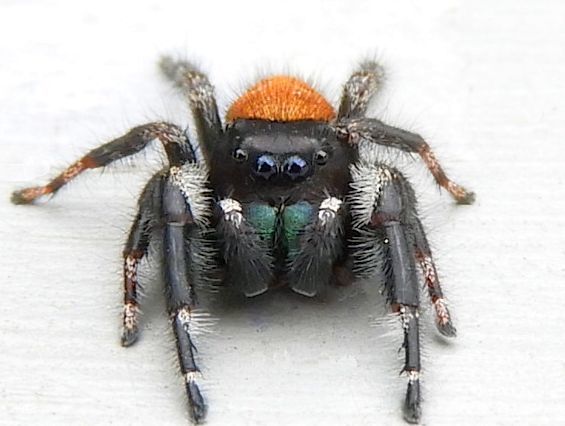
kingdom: Animalia
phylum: Arthropoda
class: Arachnida
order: Araneae
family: Salticidae
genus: Phidippus
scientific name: Phidippus princeps
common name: Grayish jumping spider
